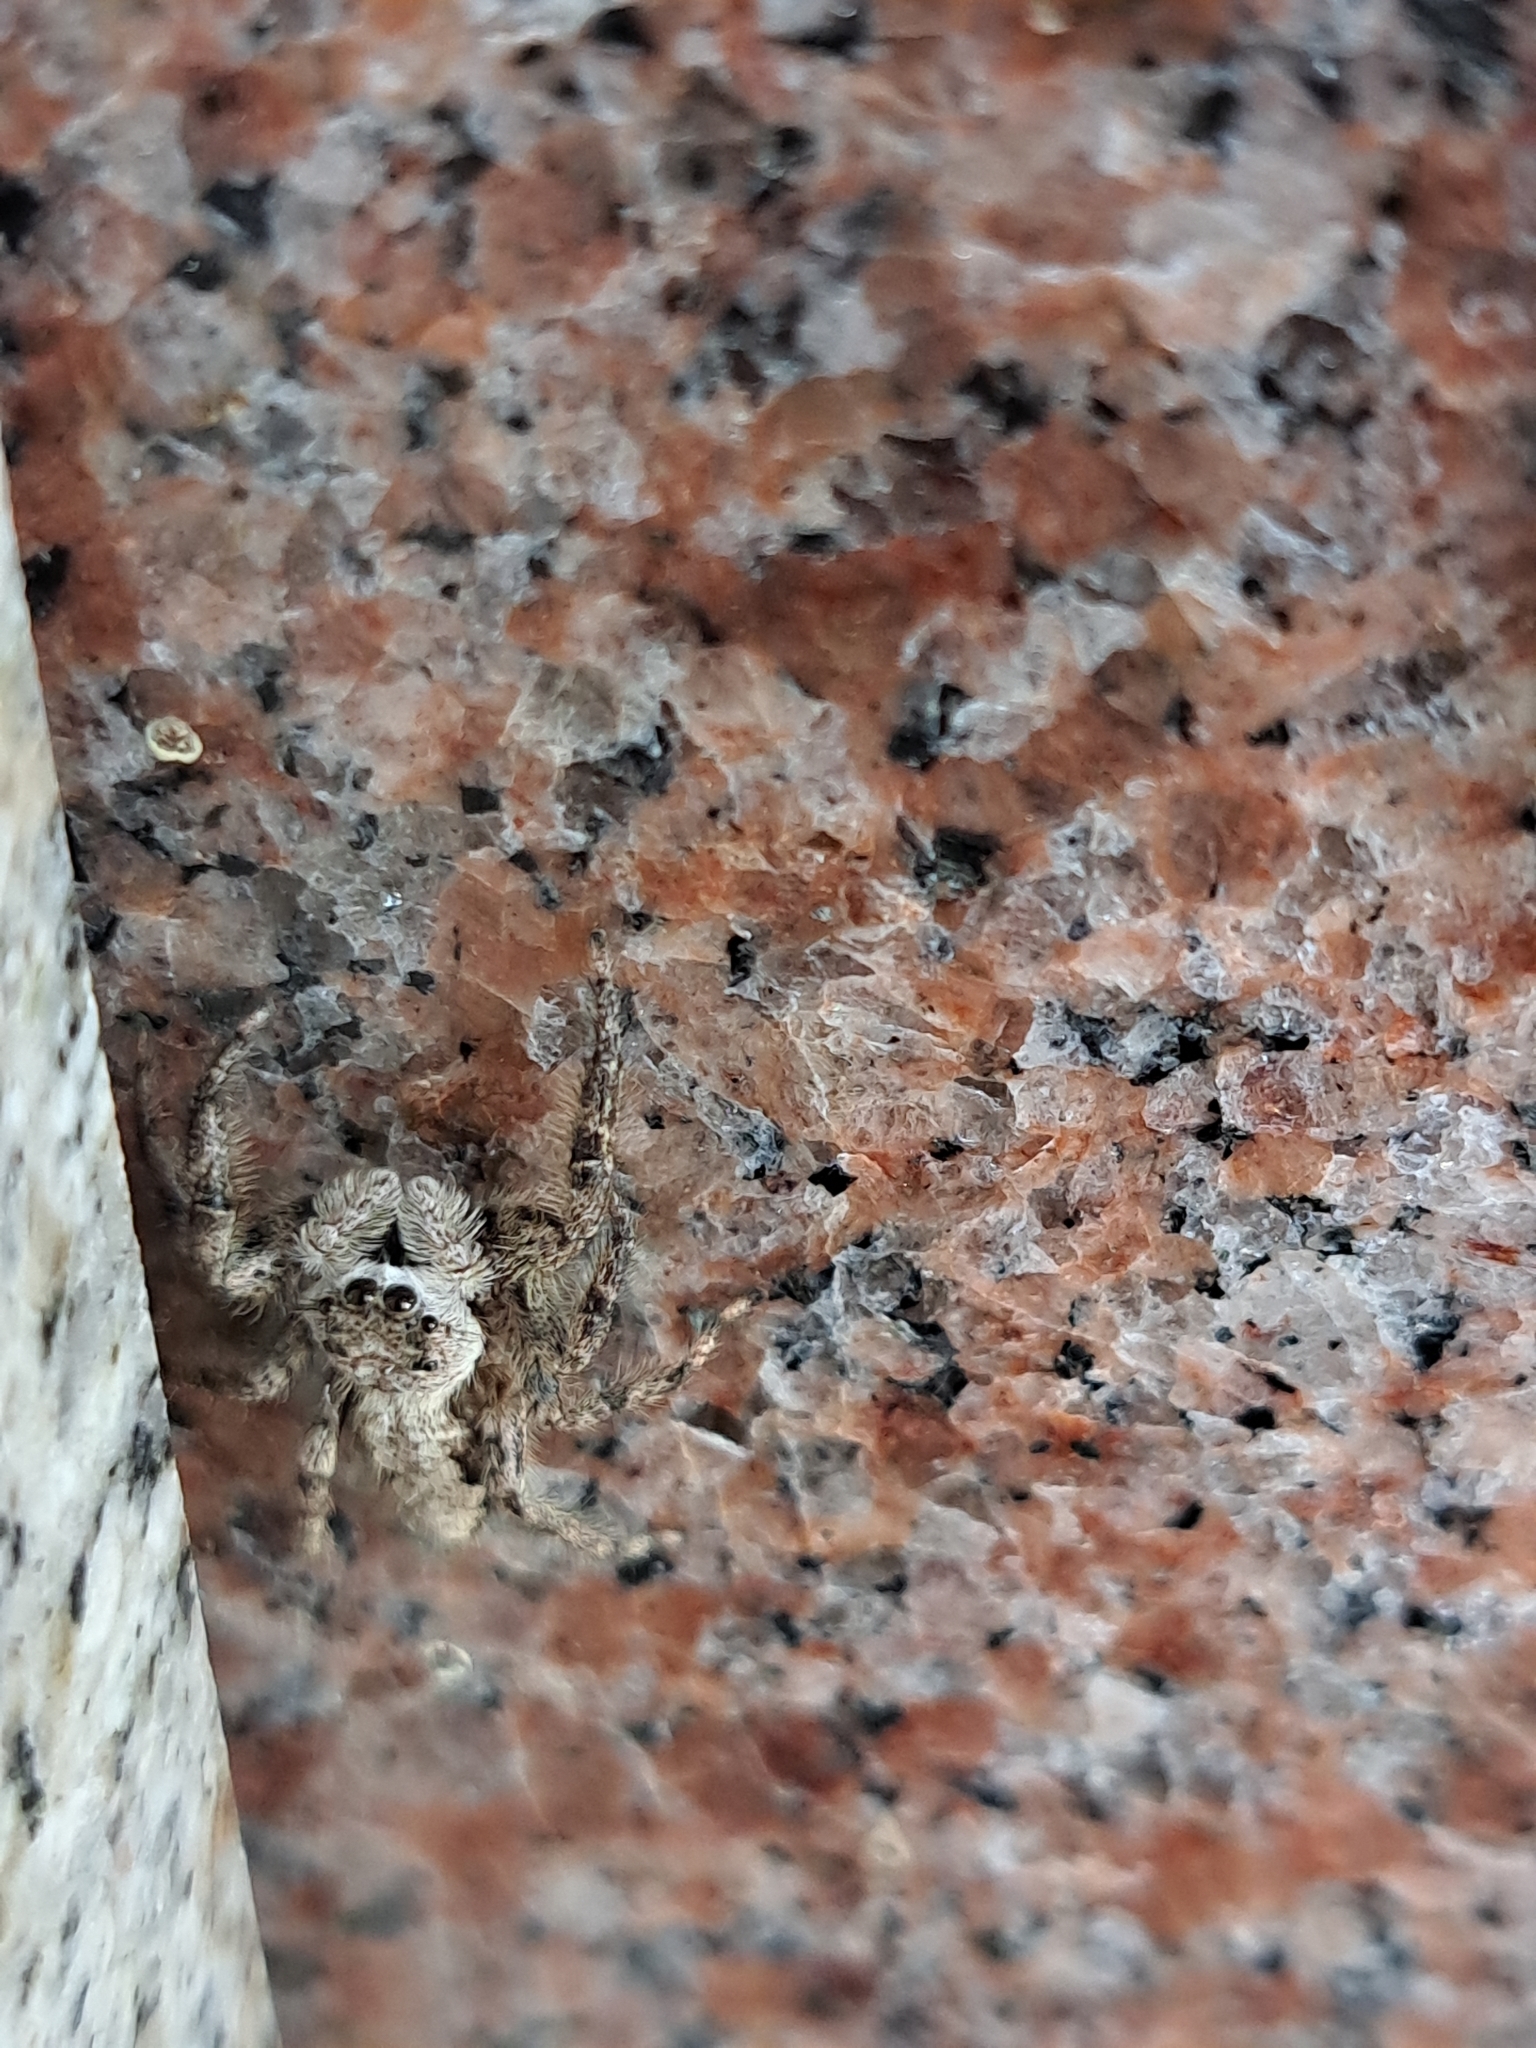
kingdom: Animalia
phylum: Arthropoda
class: Arachnida
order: Araneae
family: Salticidae
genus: Platycryptus
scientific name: Platycryptus undatus
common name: Tan jumping spider
